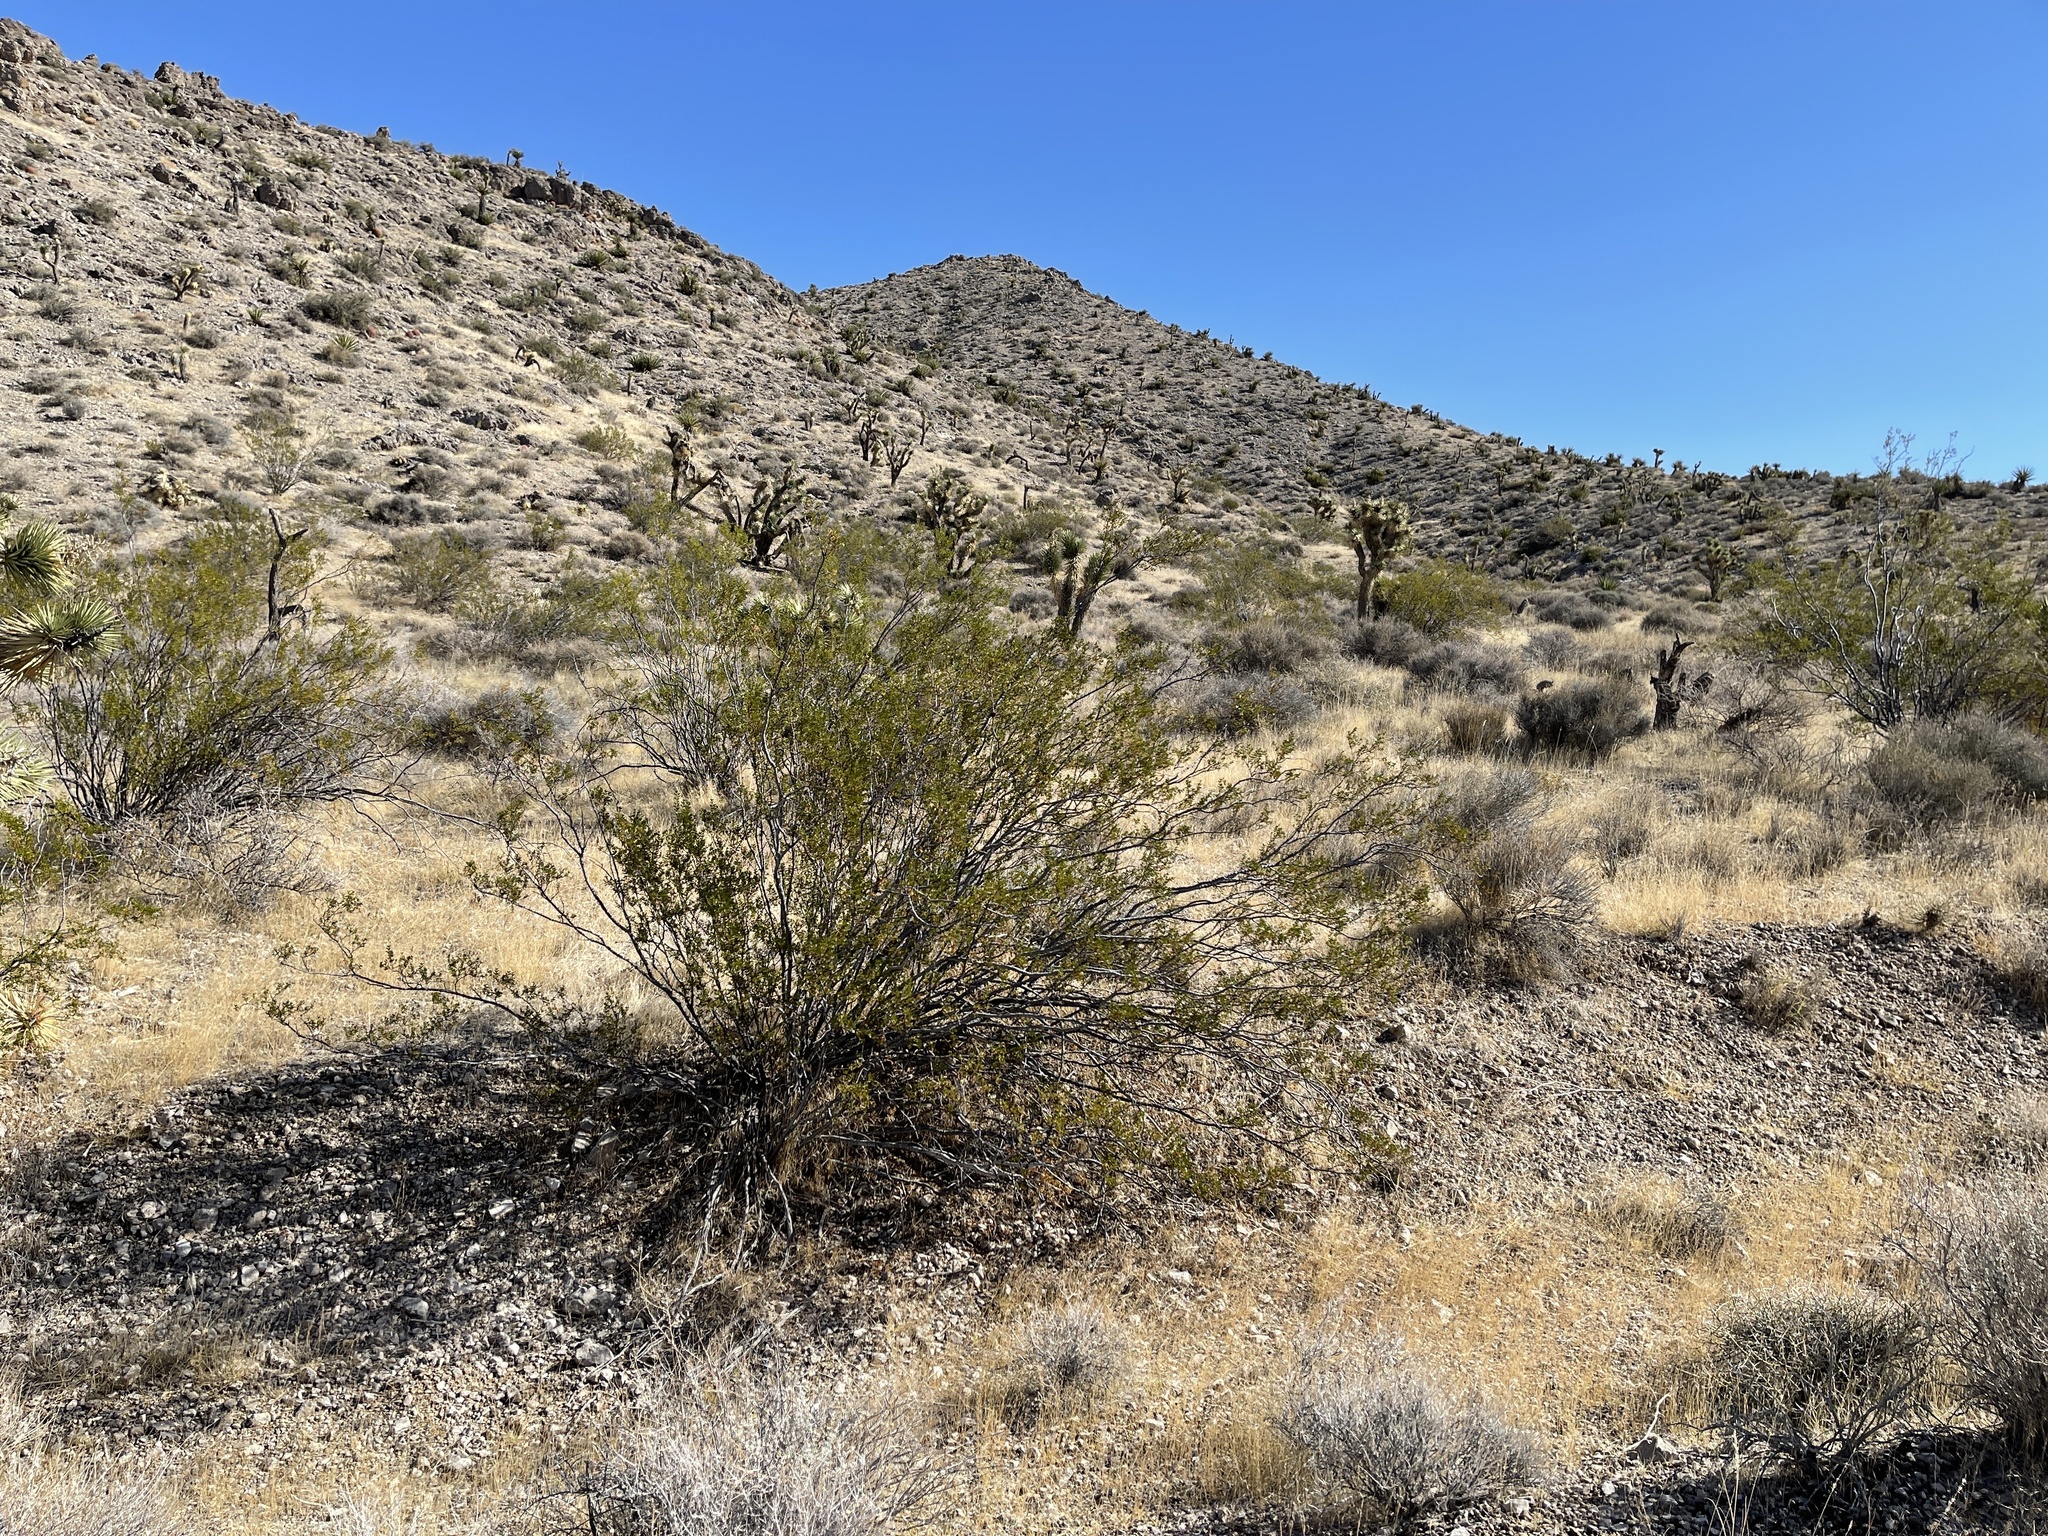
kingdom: Plantae
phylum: Tracheophyta
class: Magnoliopsida
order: Zygophyllales
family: Zygophyllaceae
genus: Larrea
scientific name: Larrea tridentata
